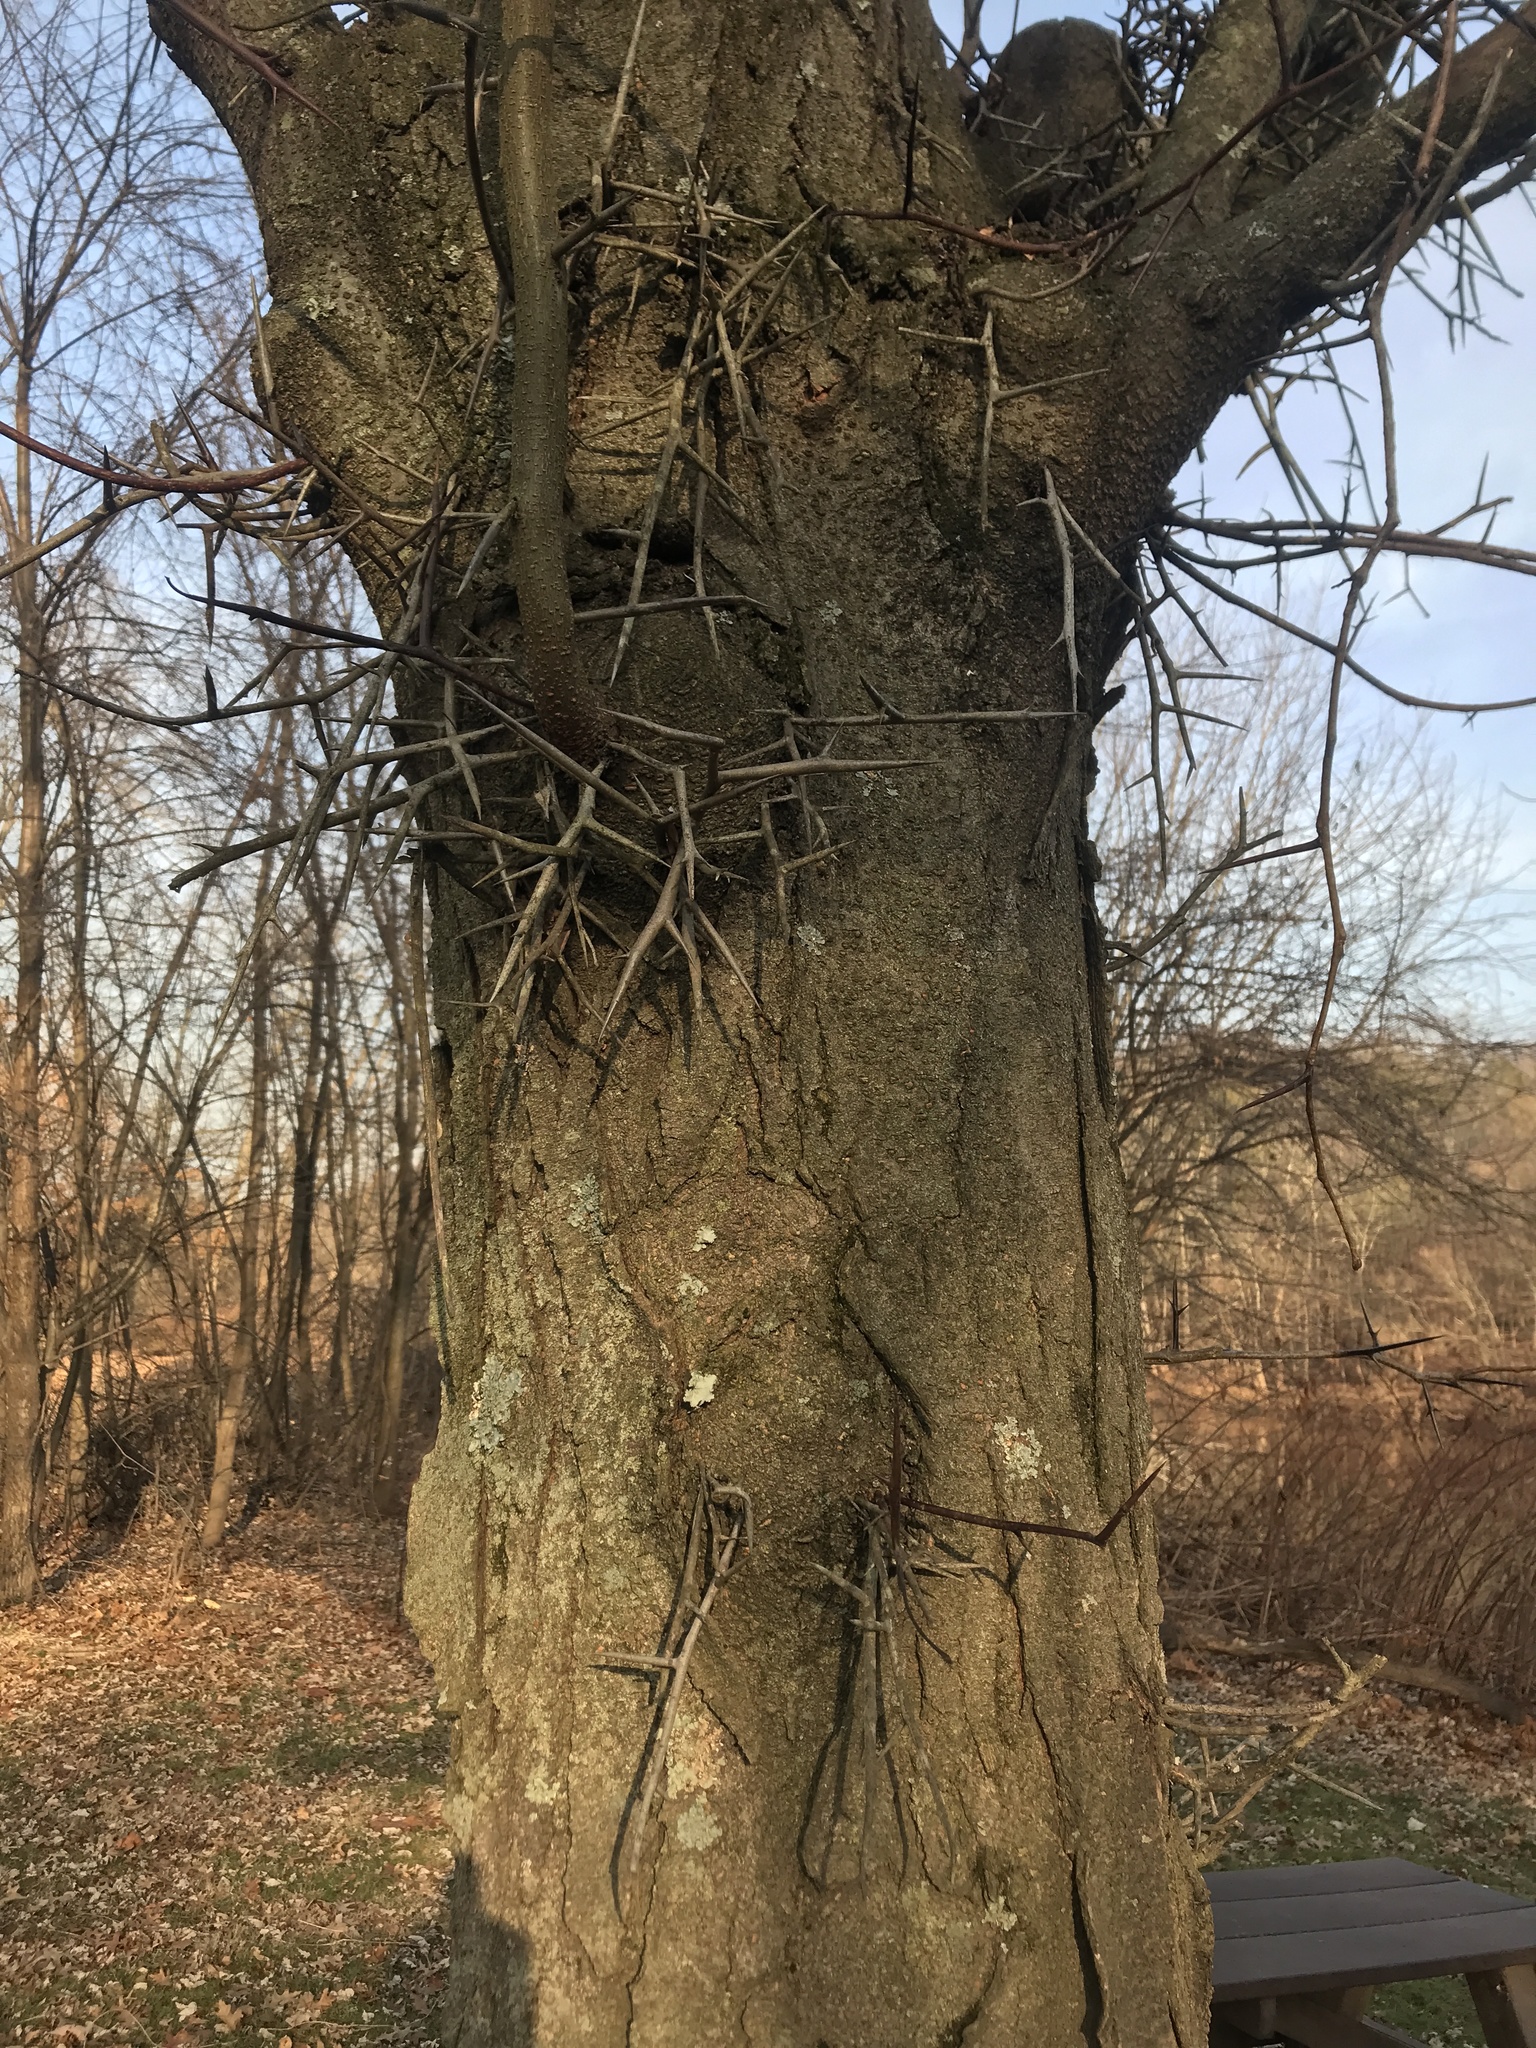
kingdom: Plantae
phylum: Tracheophyta
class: Magnoliopsida
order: Fabales
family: Fabaceae
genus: Gleditsia
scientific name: Gleditsia triacanthos
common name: Common honeylocust
